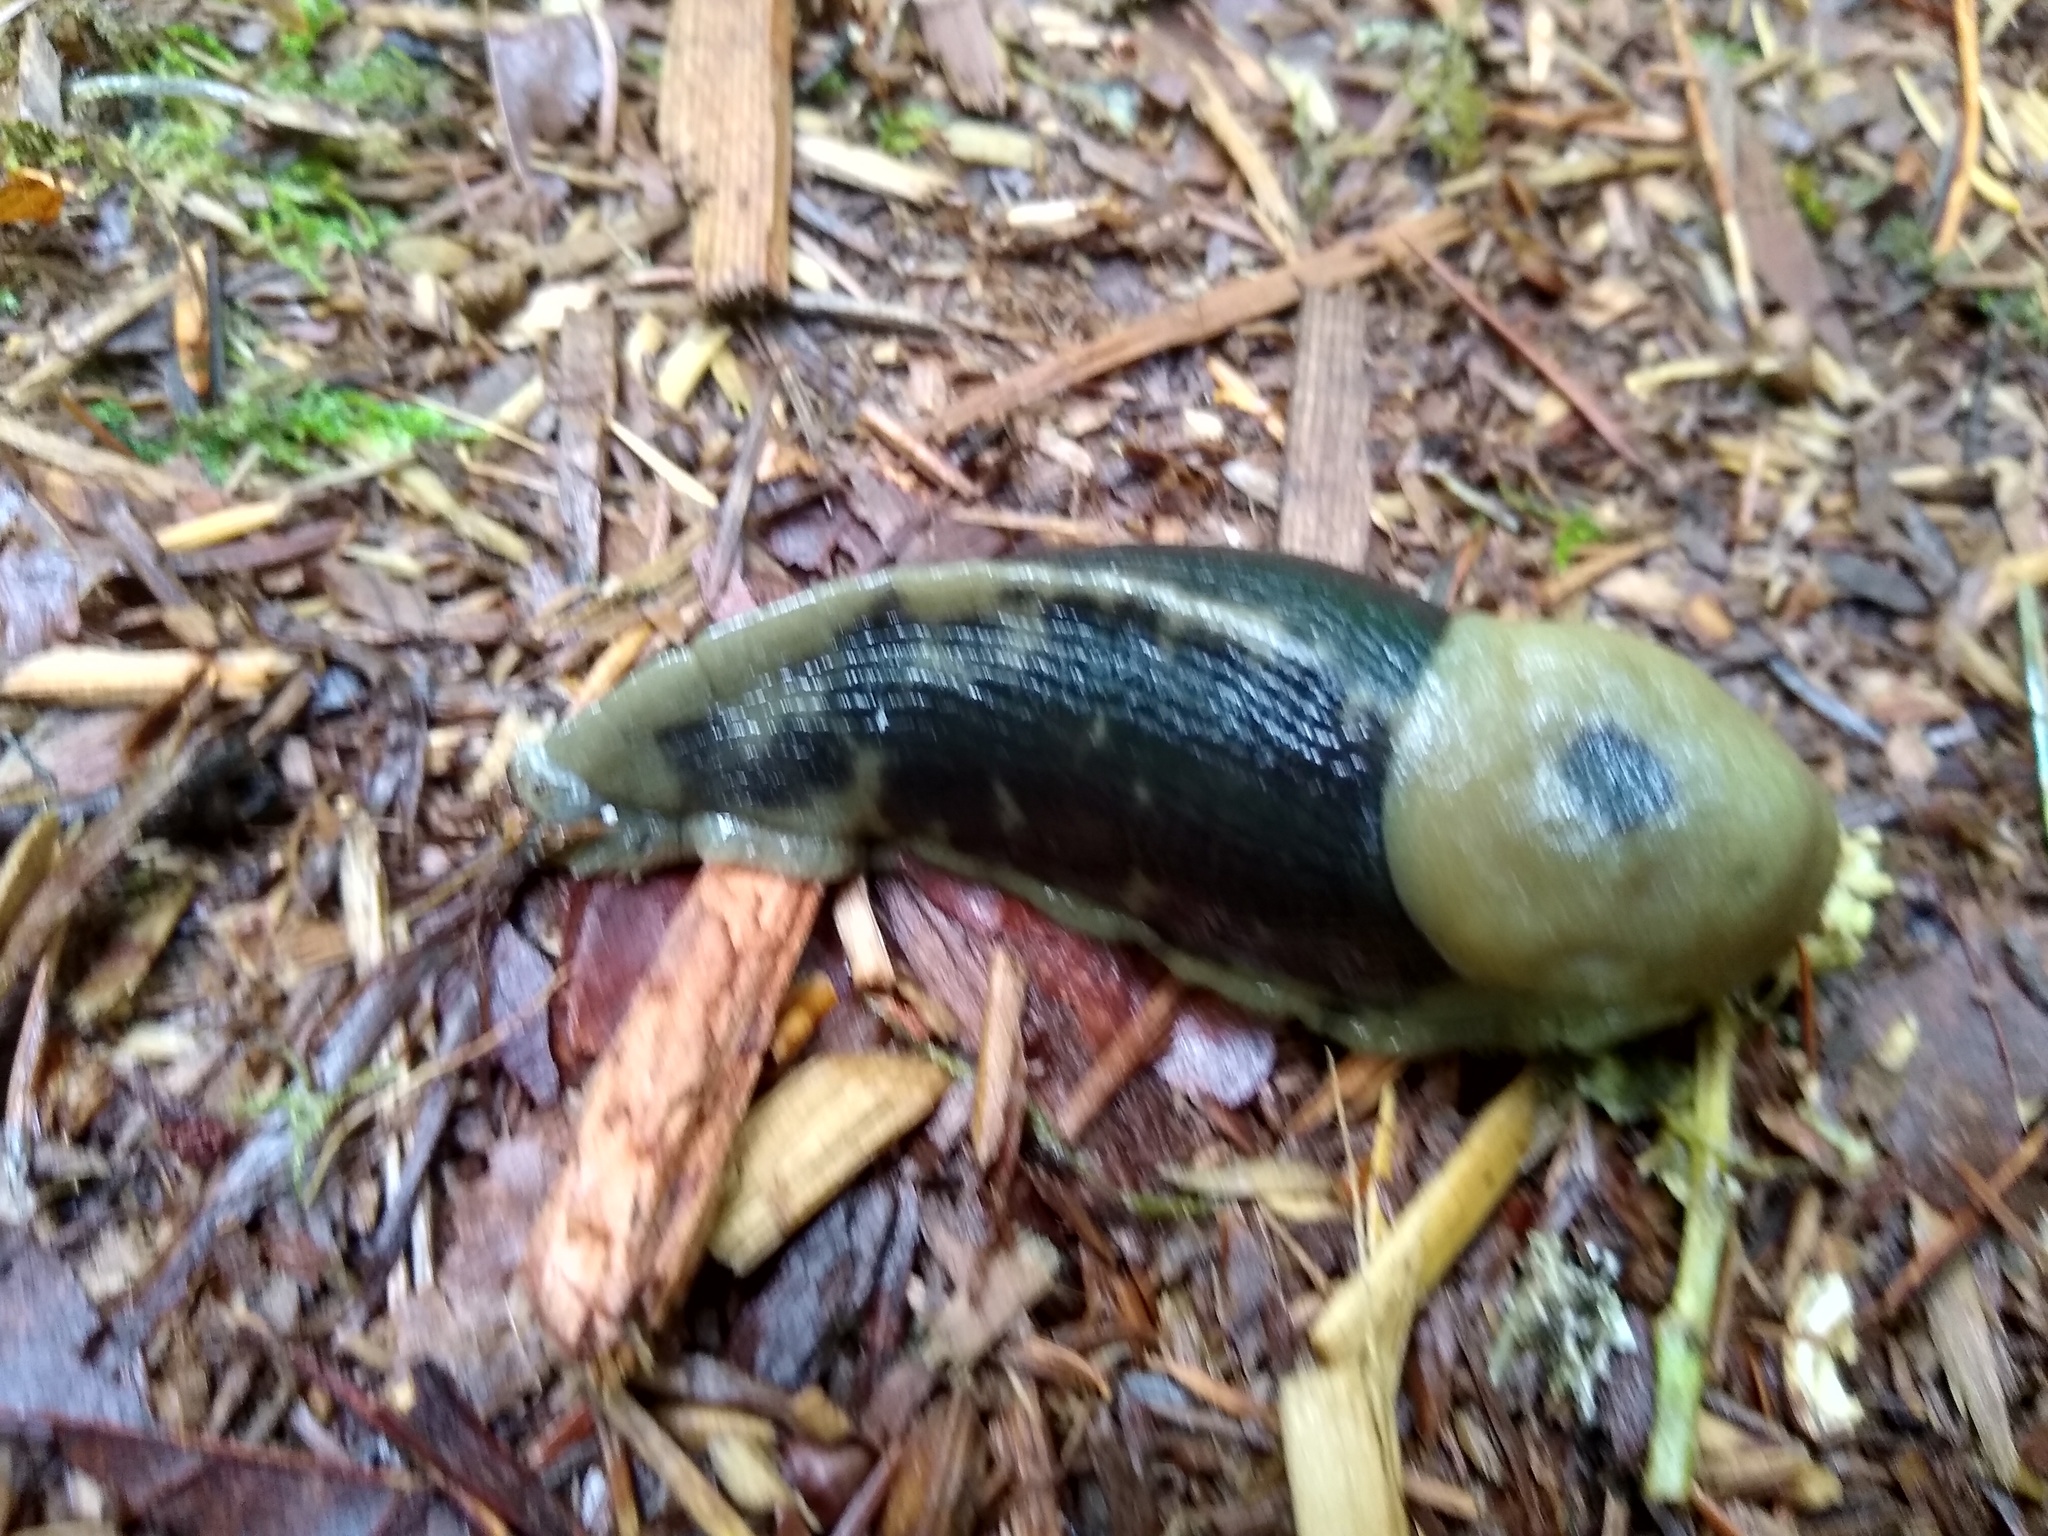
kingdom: Animalia
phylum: Mollusca
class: Gastropoda
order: Stylommatophora
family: Ariolimacidae
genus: Ariolimax
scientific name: Ariolimax columbianus
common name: Pacific banana slug
